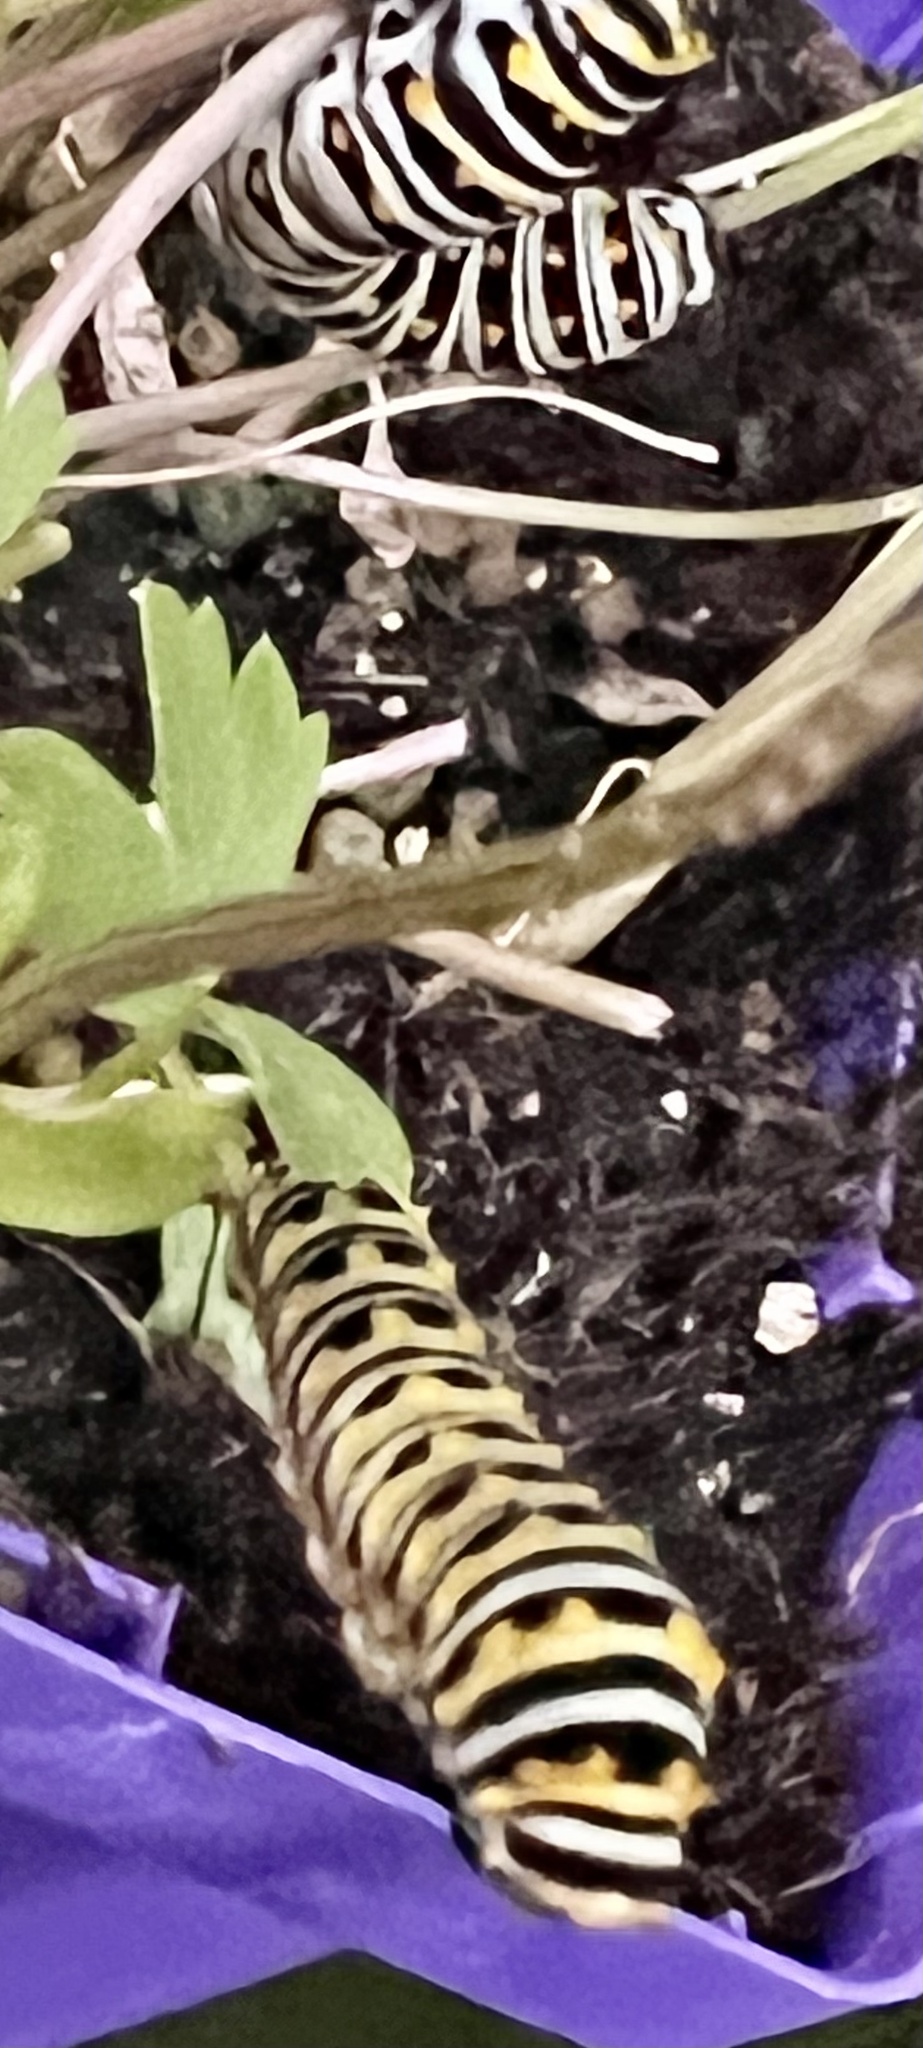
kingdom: Animalia
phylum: Arthropoda
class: Insecta
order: Lepidoptera
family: Papilionidae
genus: Papilio
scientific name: Papilio polyxenes
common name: Black swallowtail
